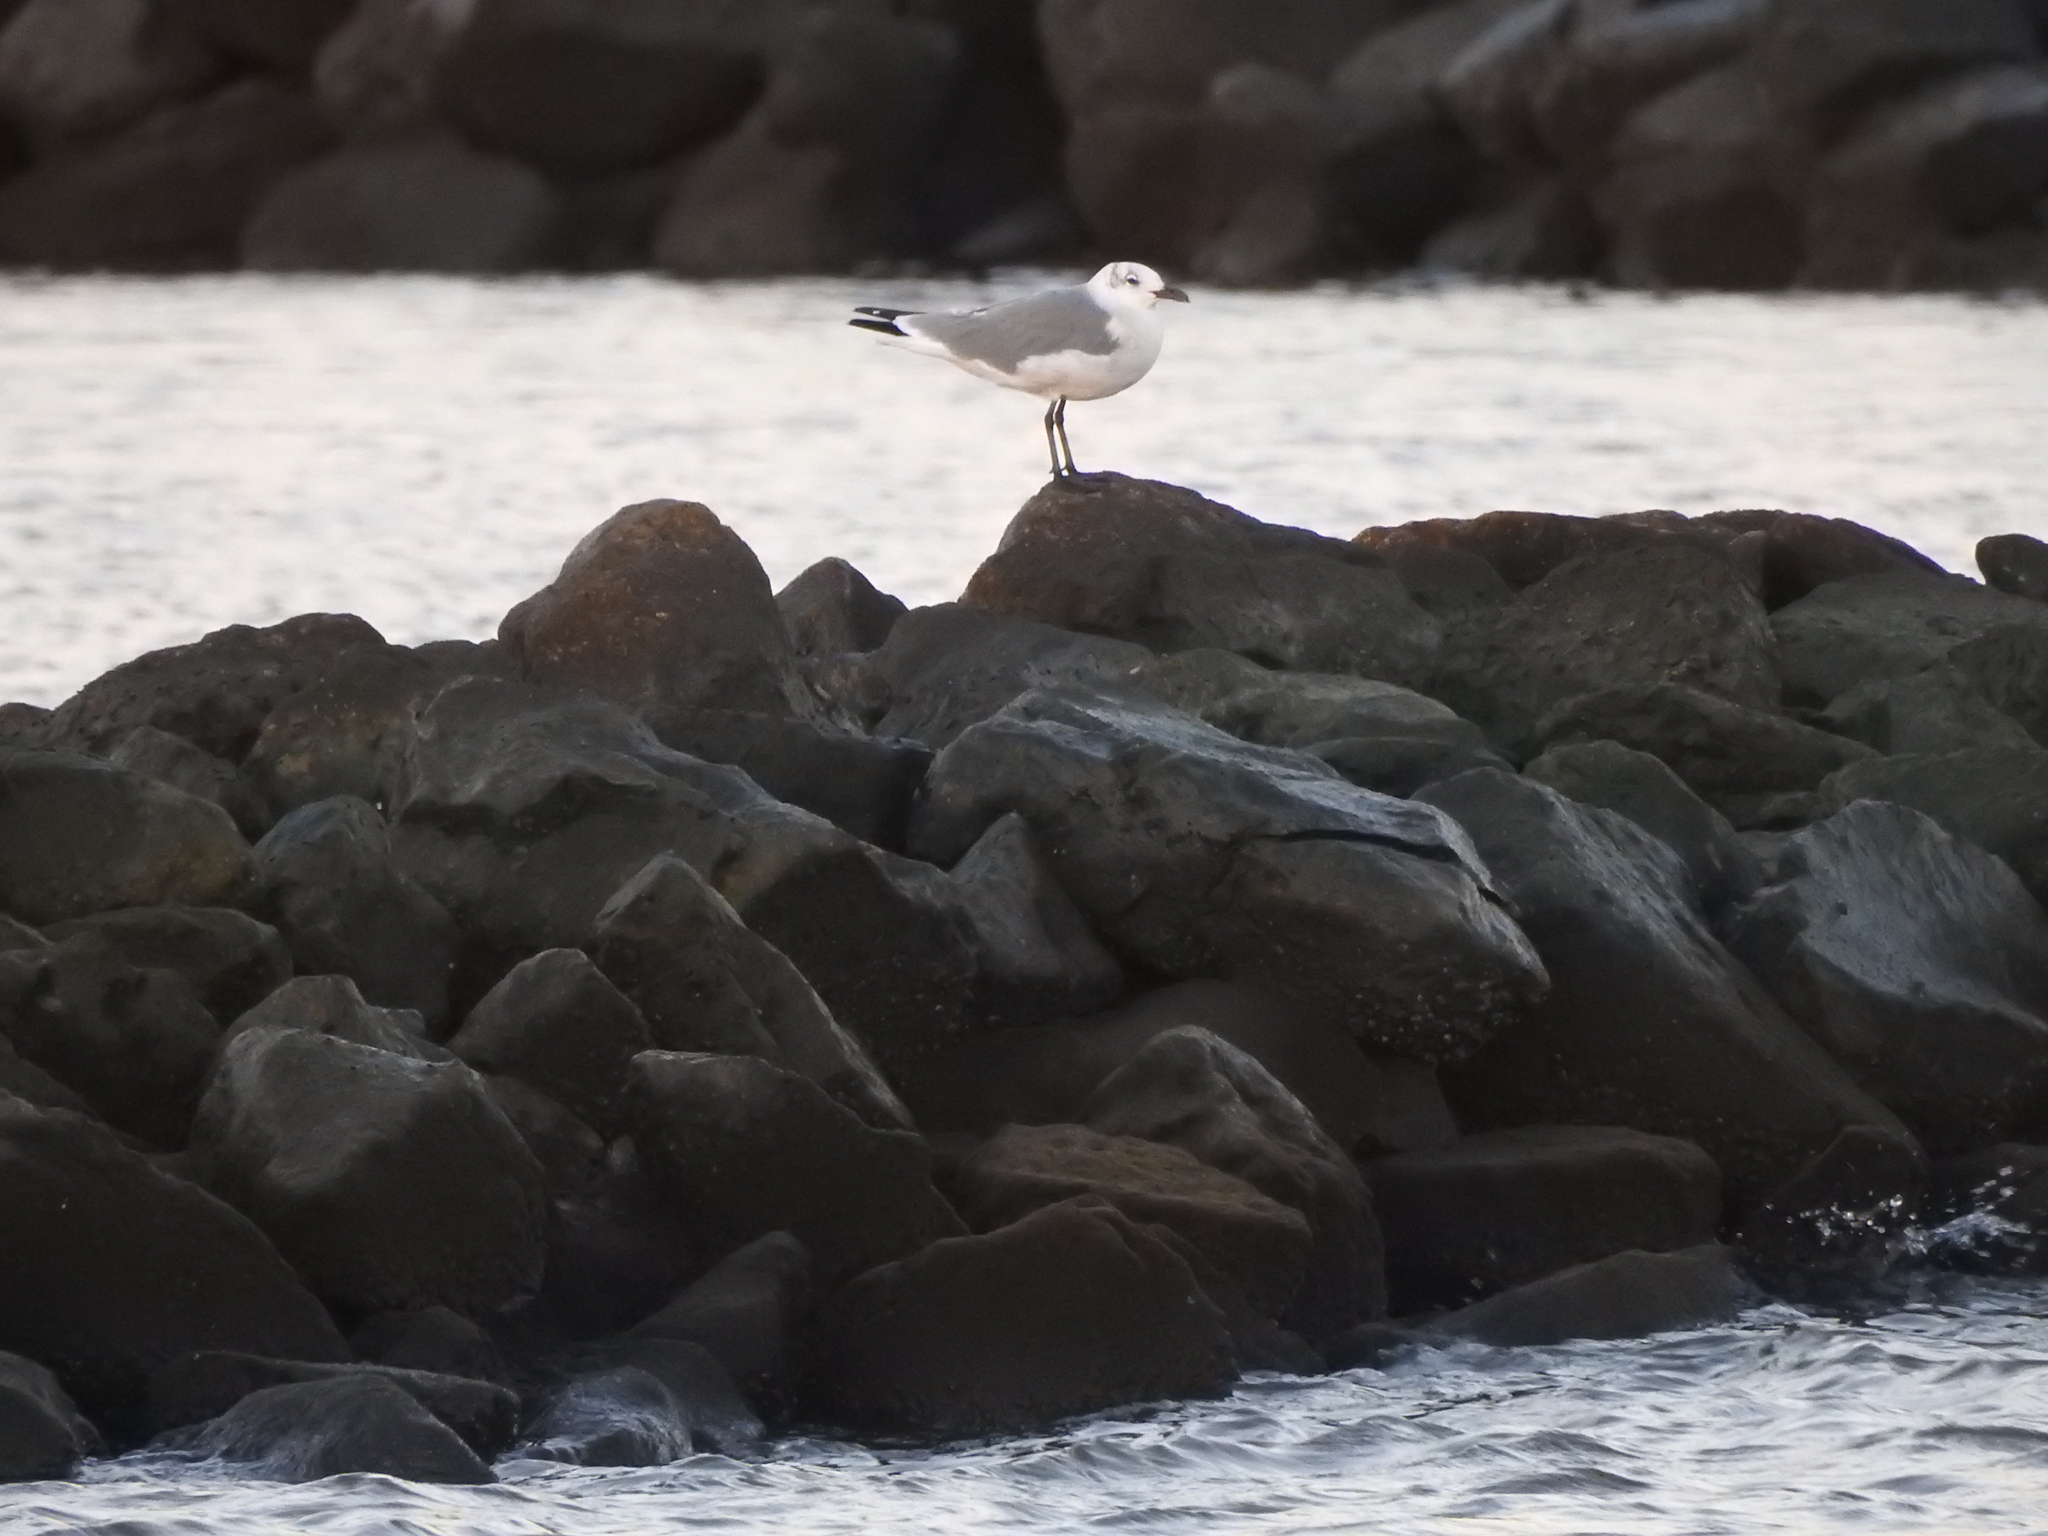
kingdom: Animalia
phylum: Chordata
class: Aves
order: Charadriiformes
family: Laridae
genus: Leucophaeus
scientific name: Leucophaeus atricilla
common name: Laughing gull
